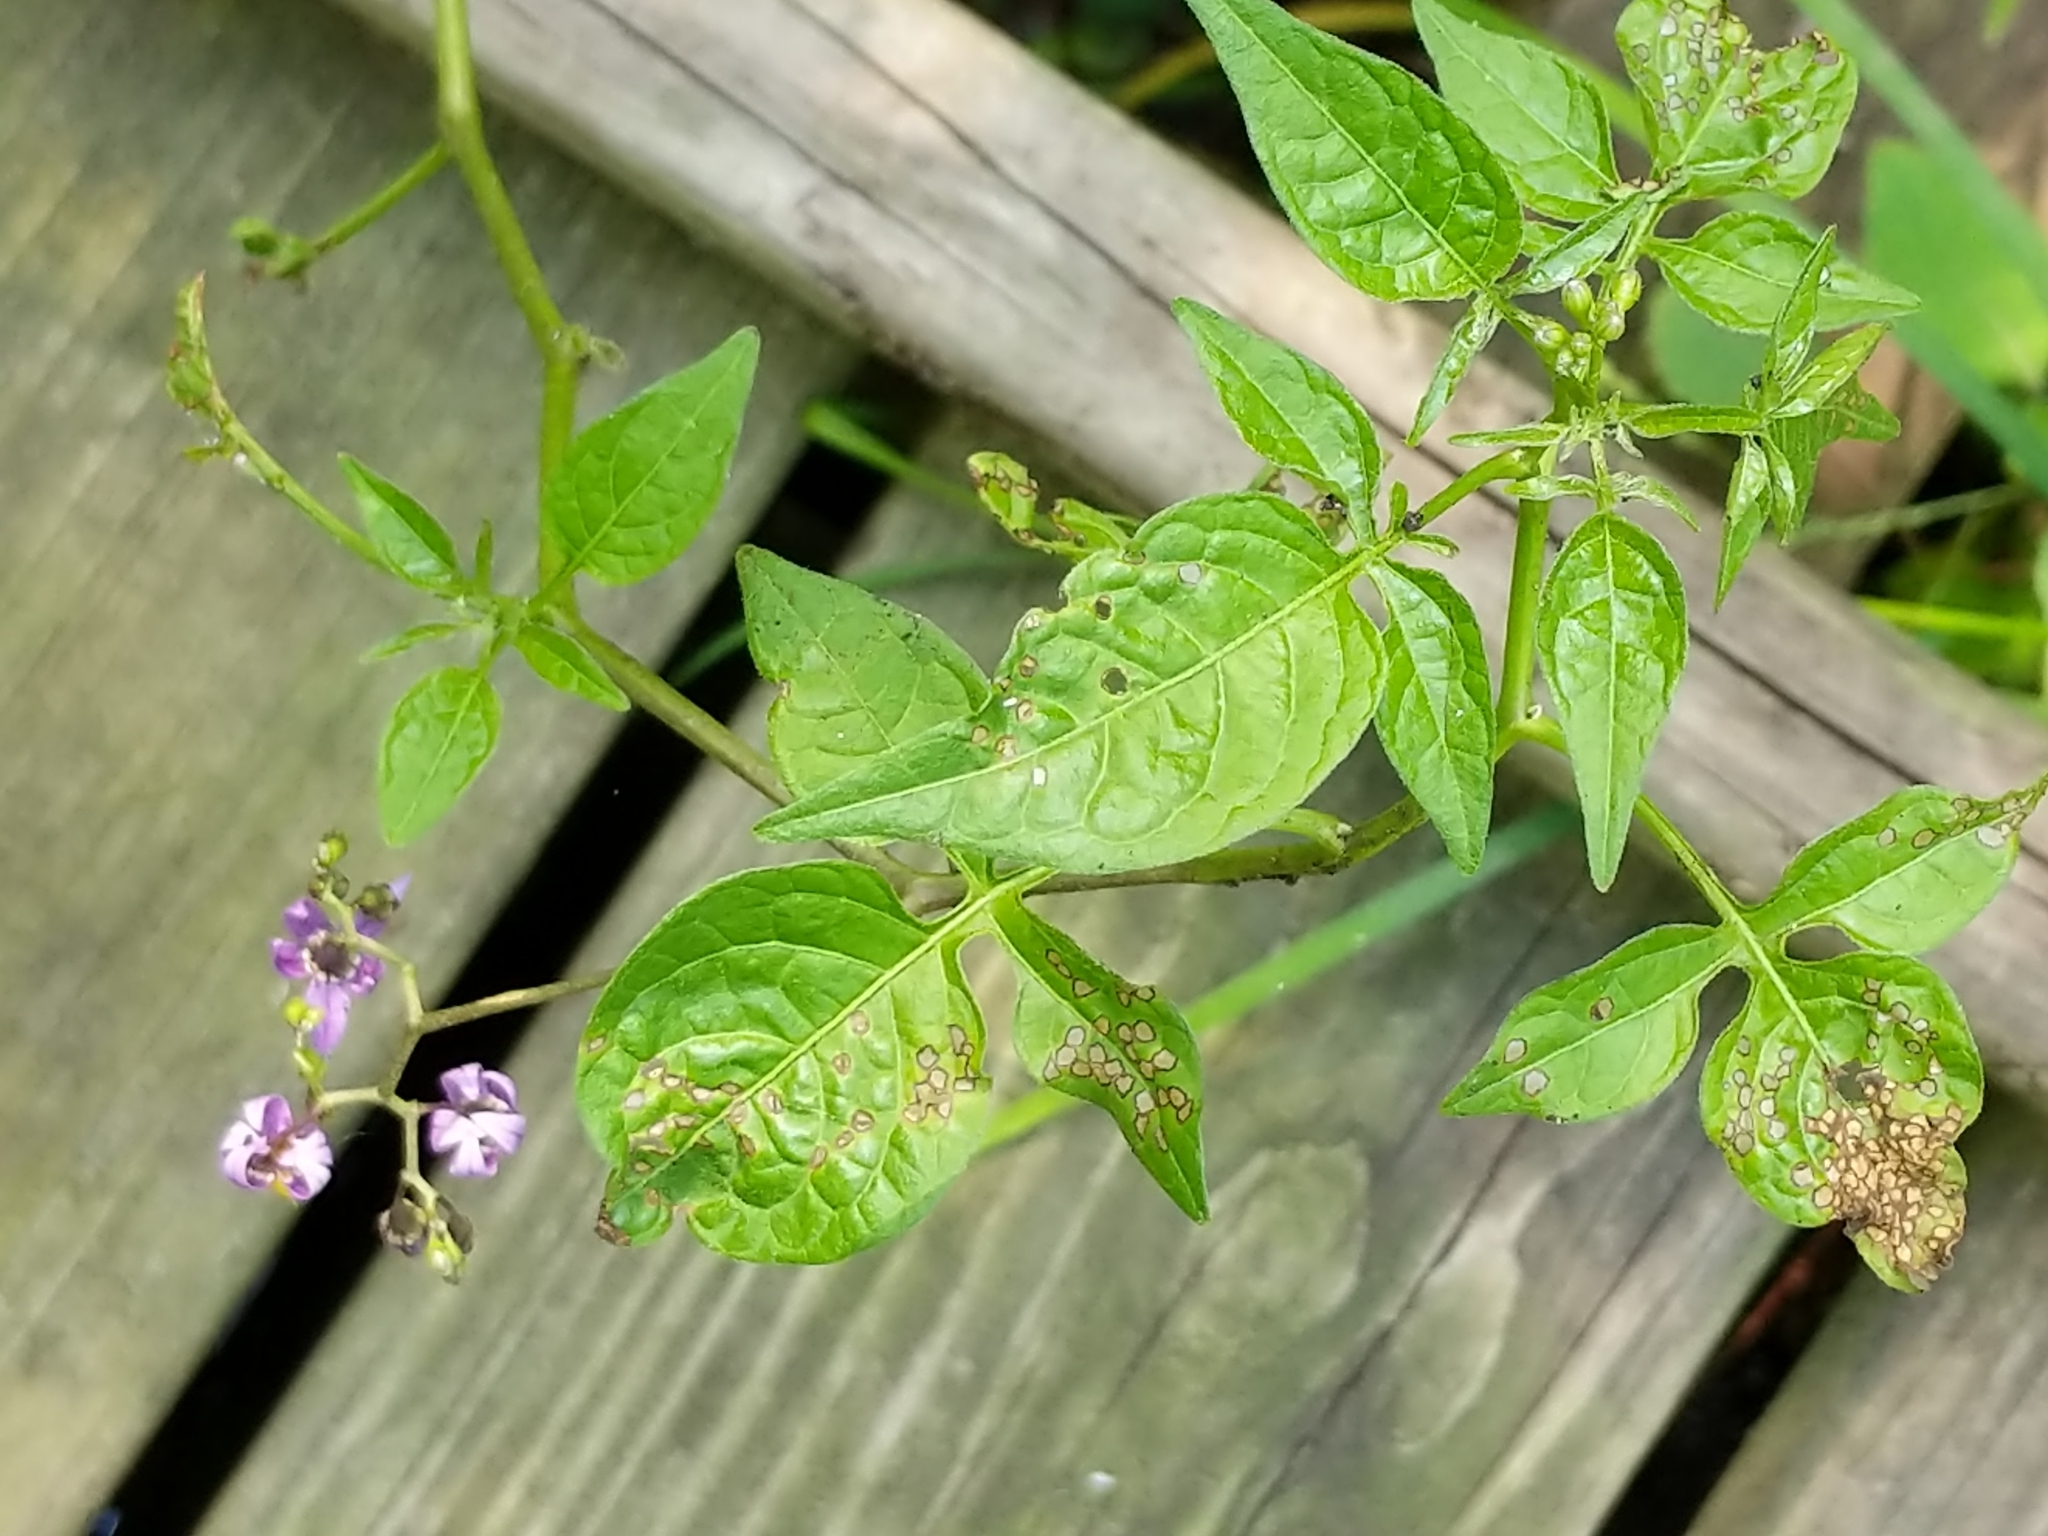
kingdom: Plantae
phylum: Tracheophyta
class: Magnoliopsida
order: Solanales
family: Solanaceae
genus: Solanum
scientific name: Solanum dulcamara
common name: Climbing nightshade
